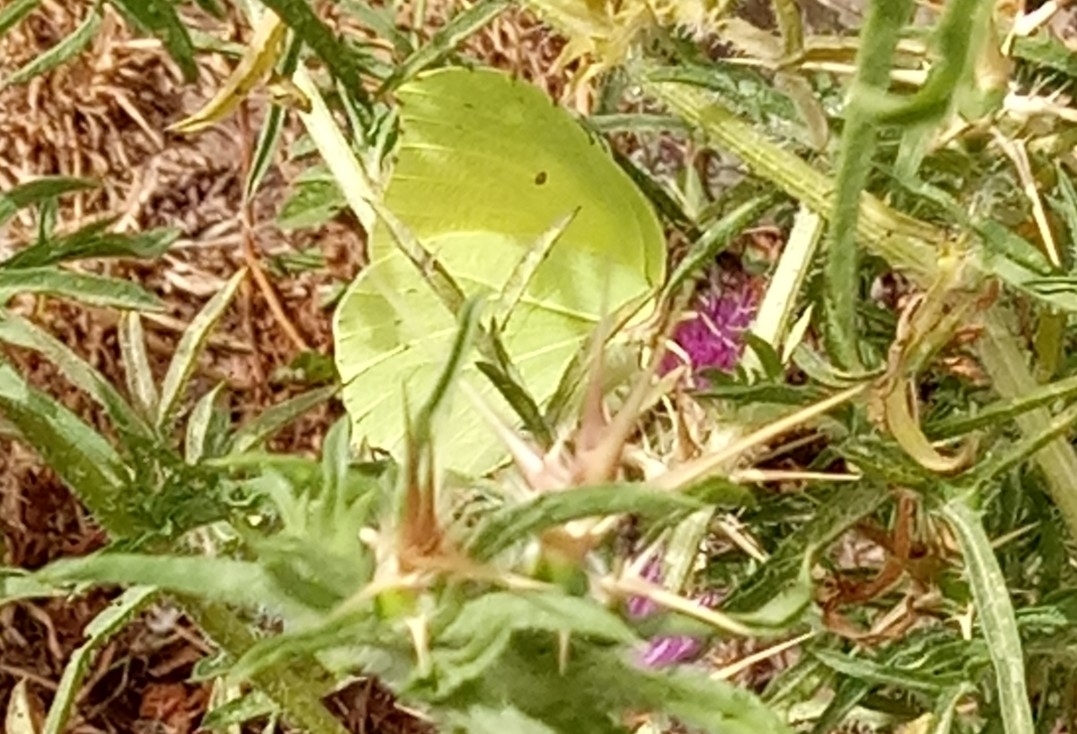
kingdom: Animalia
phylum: Arthropoda
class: Insecta
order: Lepidoptera
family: Pieridae
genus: Gonepteryx
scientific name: Gonepteryx rhamni
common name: Brimstone
